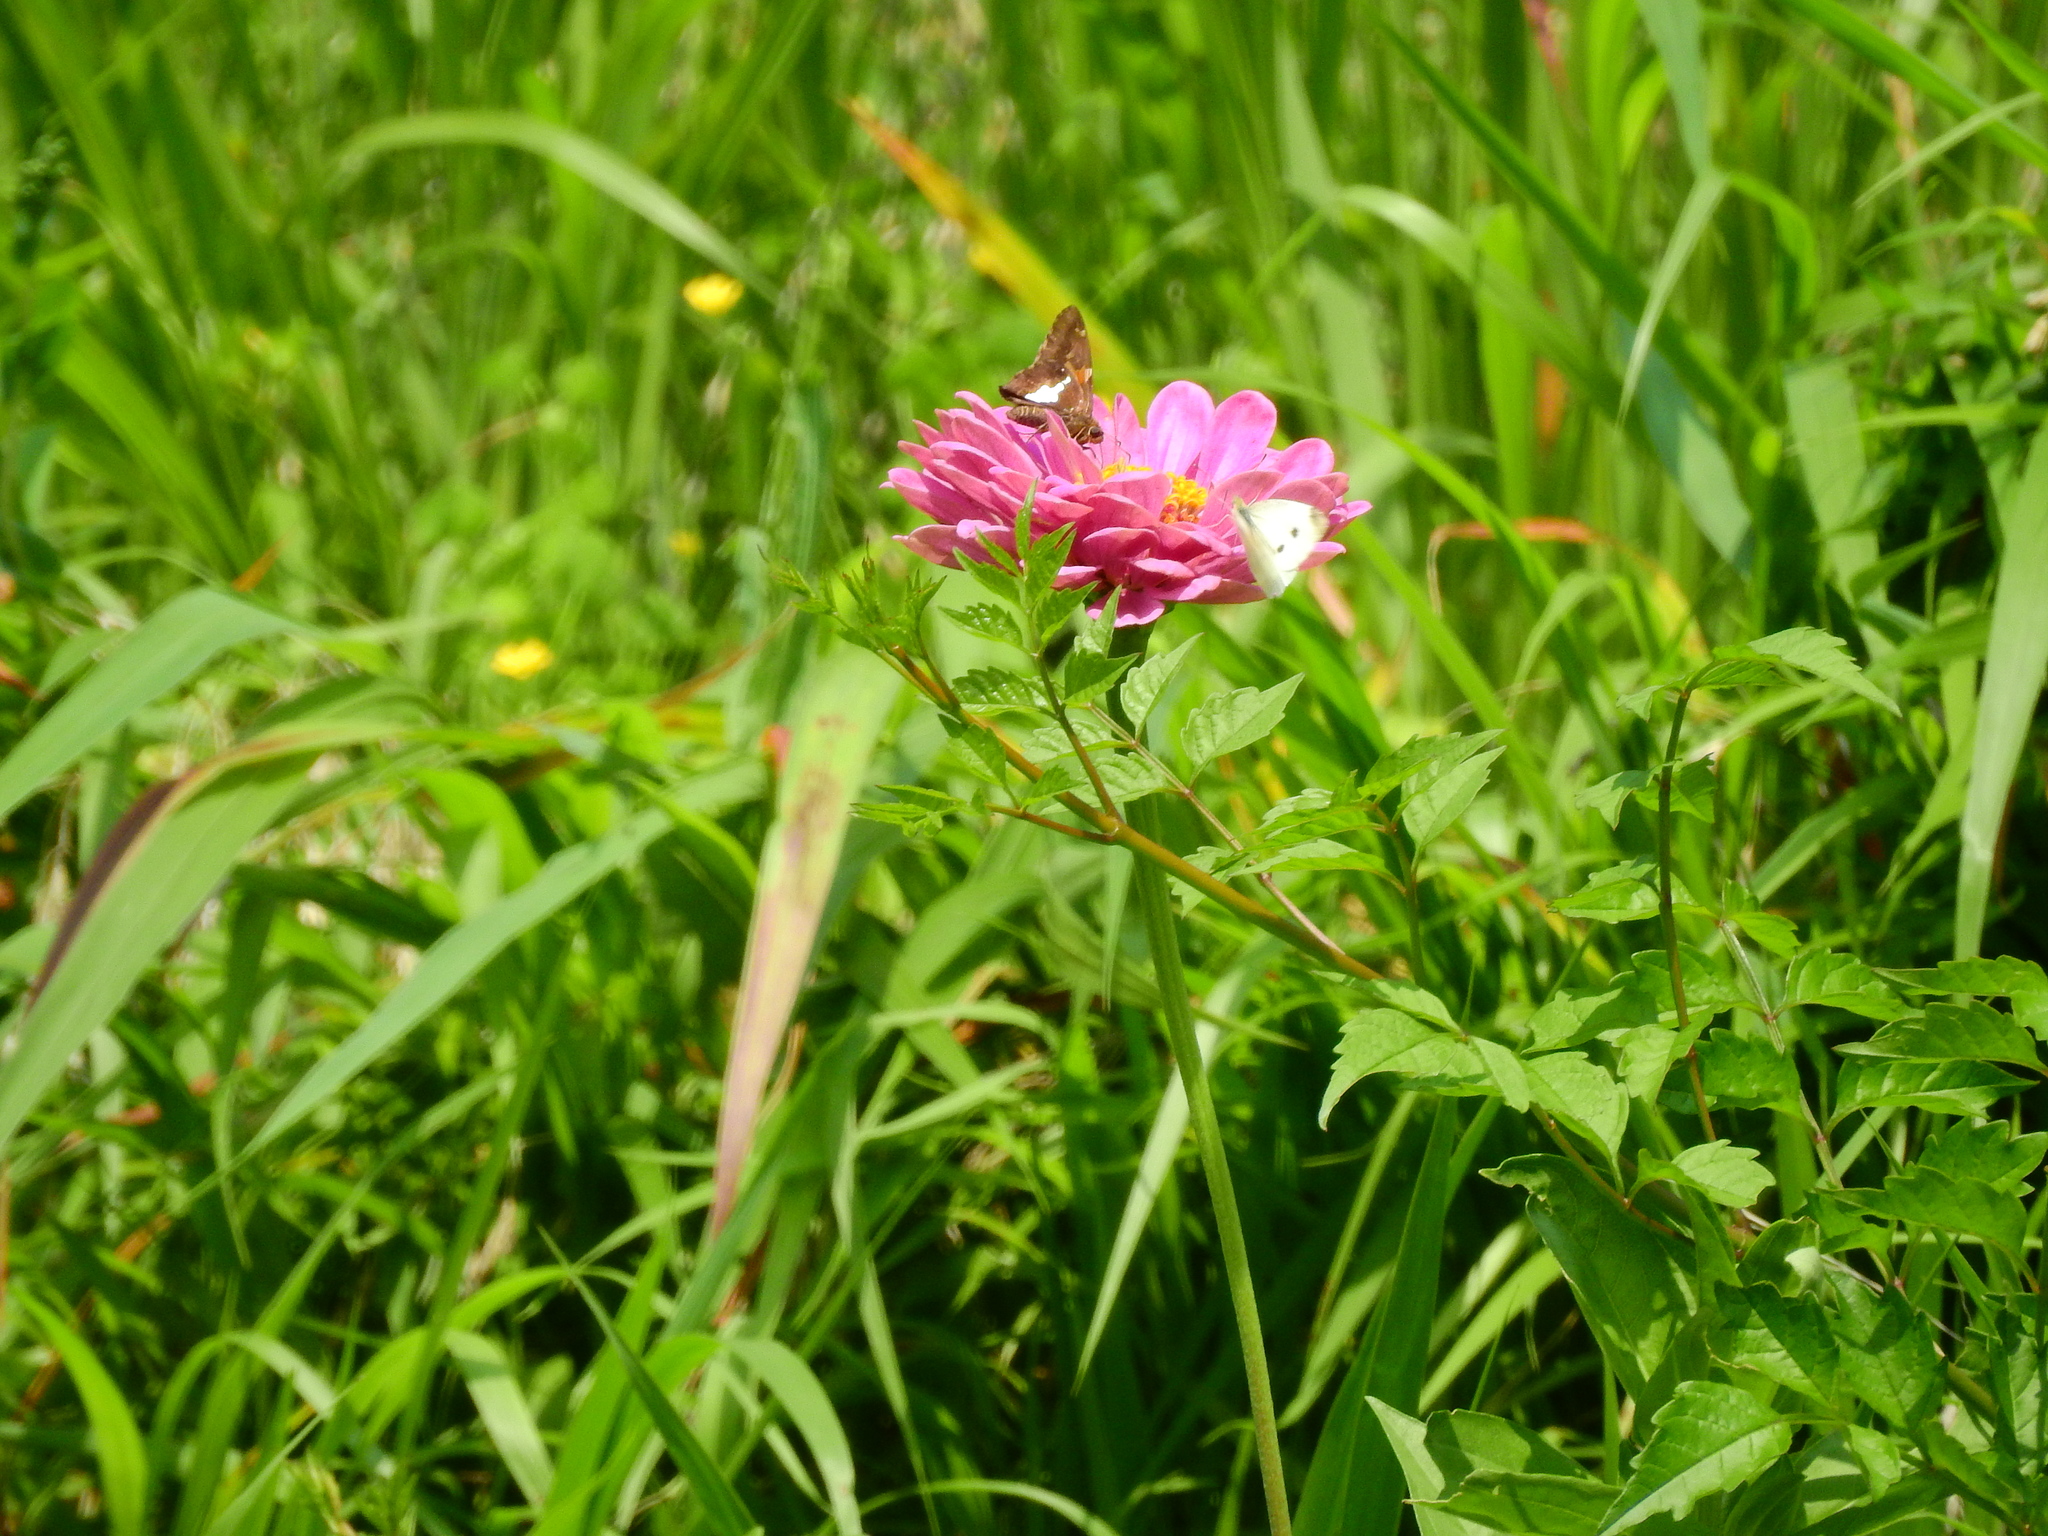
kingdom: Animalia
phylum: Arthropoda
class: Insecta
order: Lepidoptera
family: Pieridae
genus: Pieris
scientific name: Pieris rapae
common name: Small white
